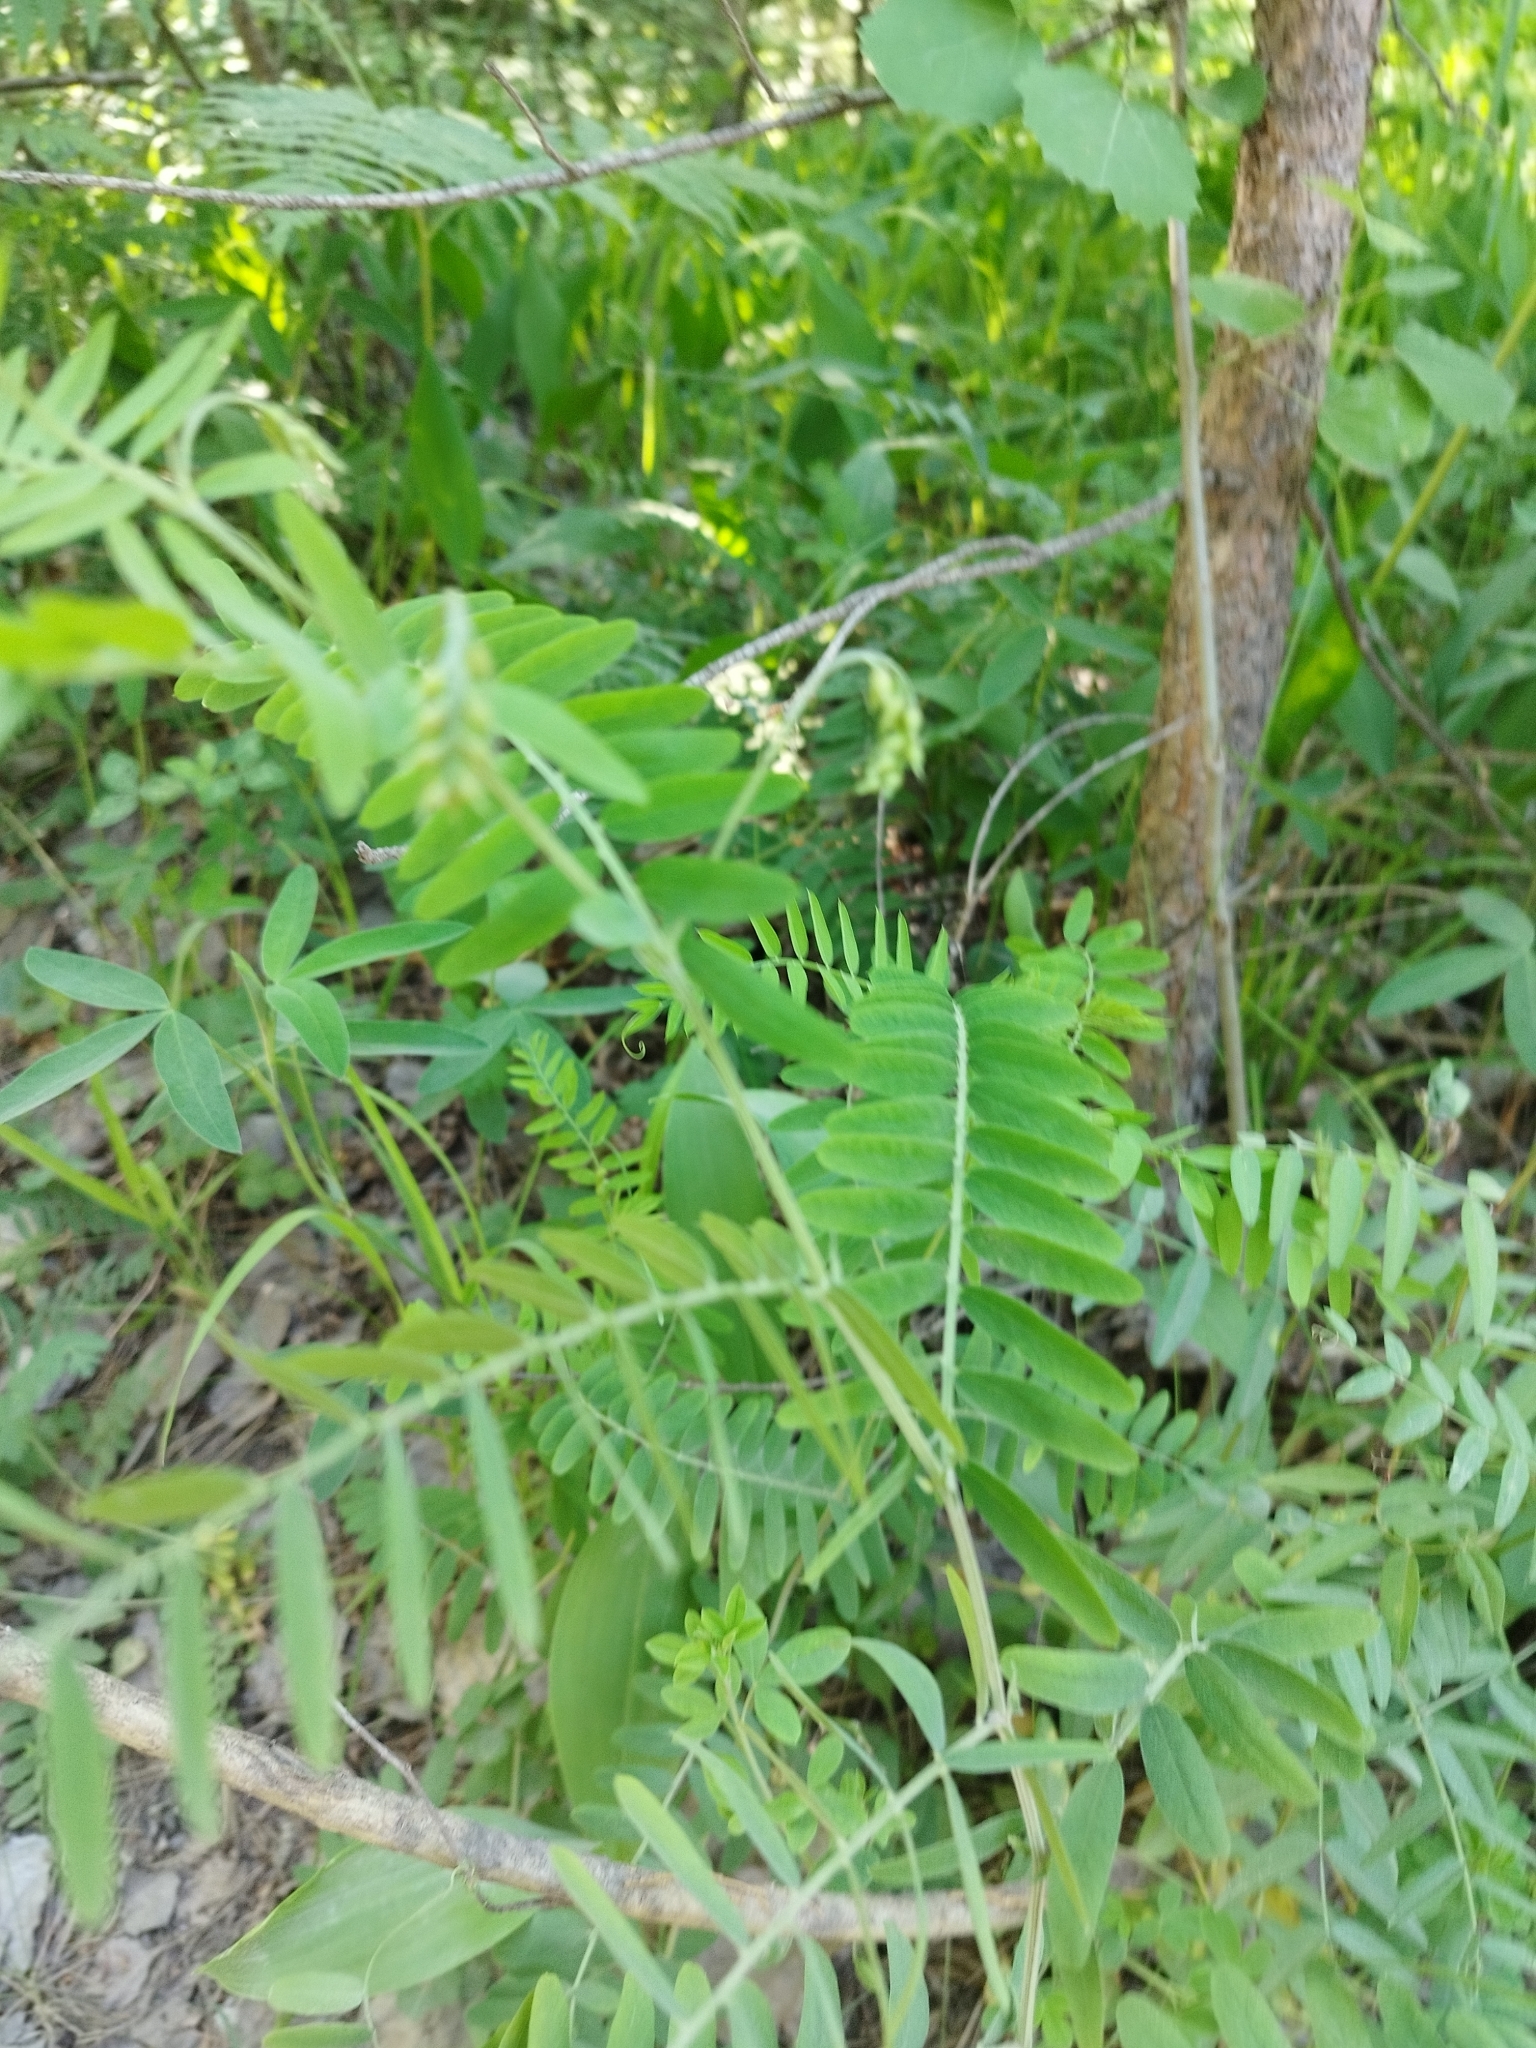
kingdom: Plantae
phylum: Tracheophyta
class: Magnoliopsida
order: Fabales
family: Fabaceae
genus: Vicia
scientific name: Vicia cracca
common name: Bird vetch
